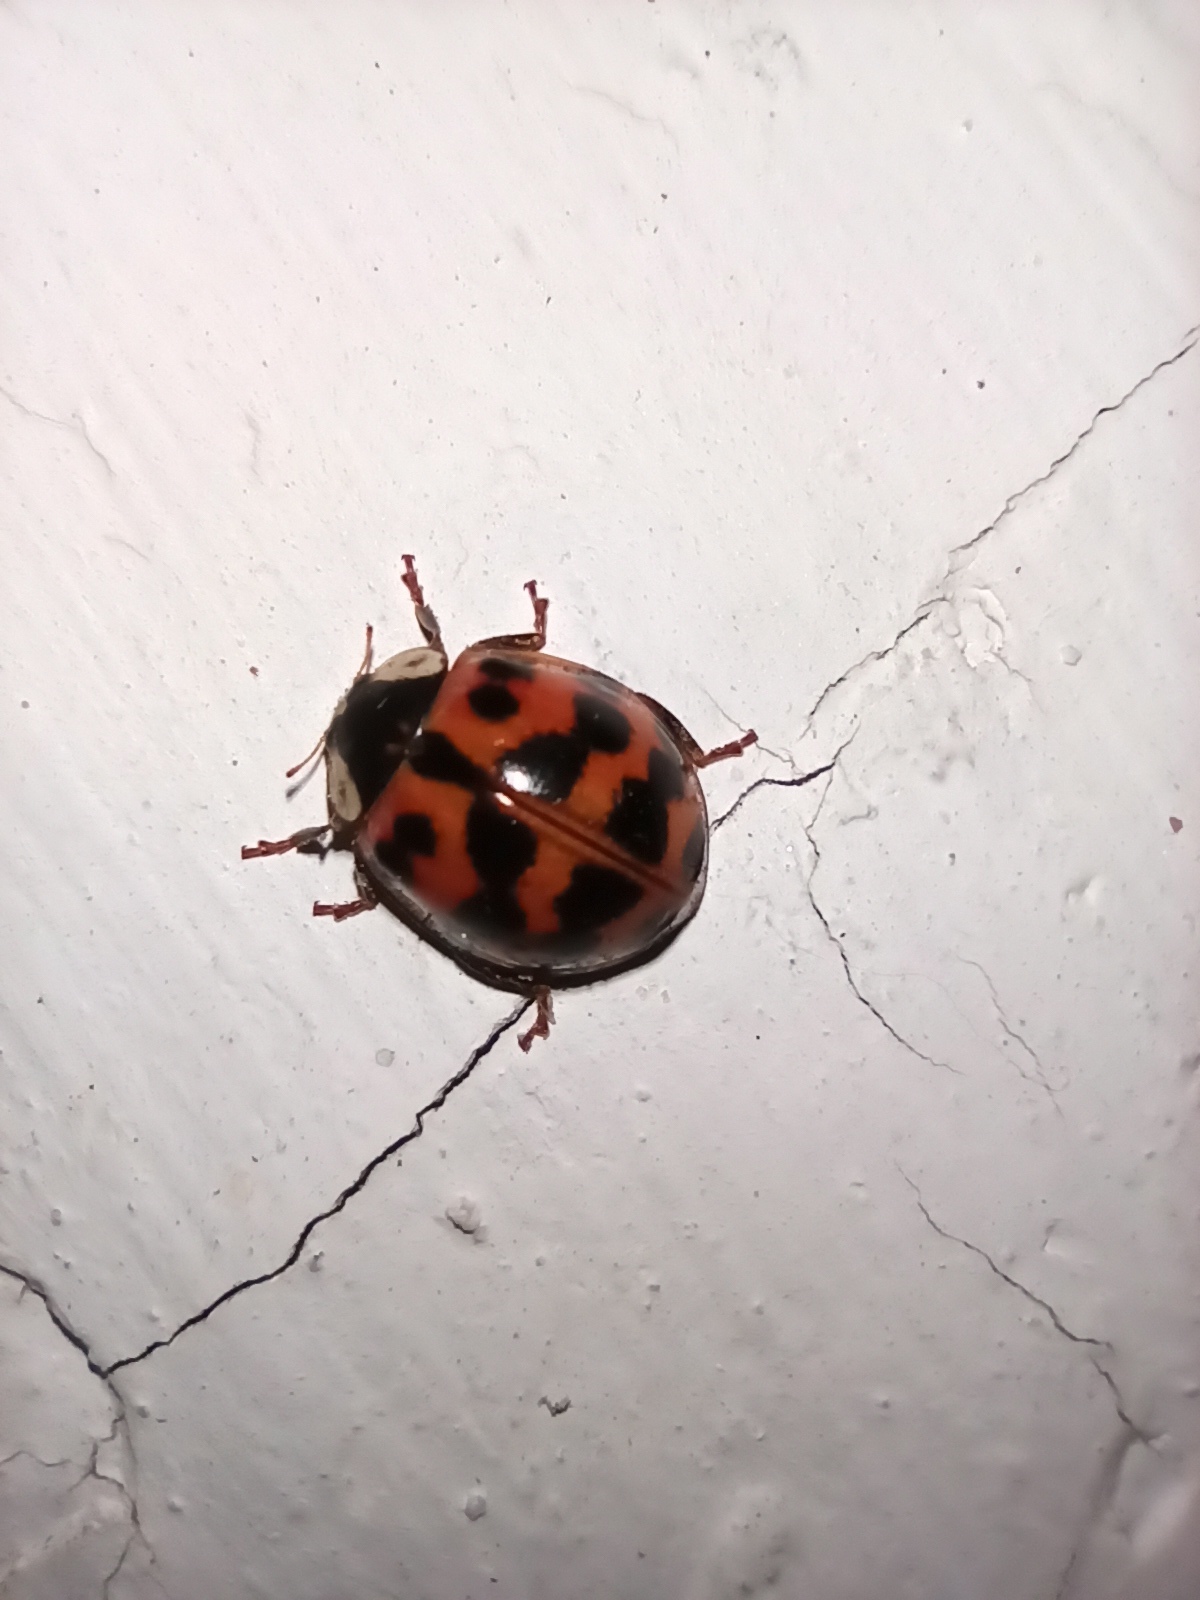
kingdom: Animalia
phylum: Arthropoda
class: Insecta
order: Coleoptera
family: Coccinellidae
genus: Harmonia
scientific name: Harmonia axyridis
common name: Harlequin ladybird
